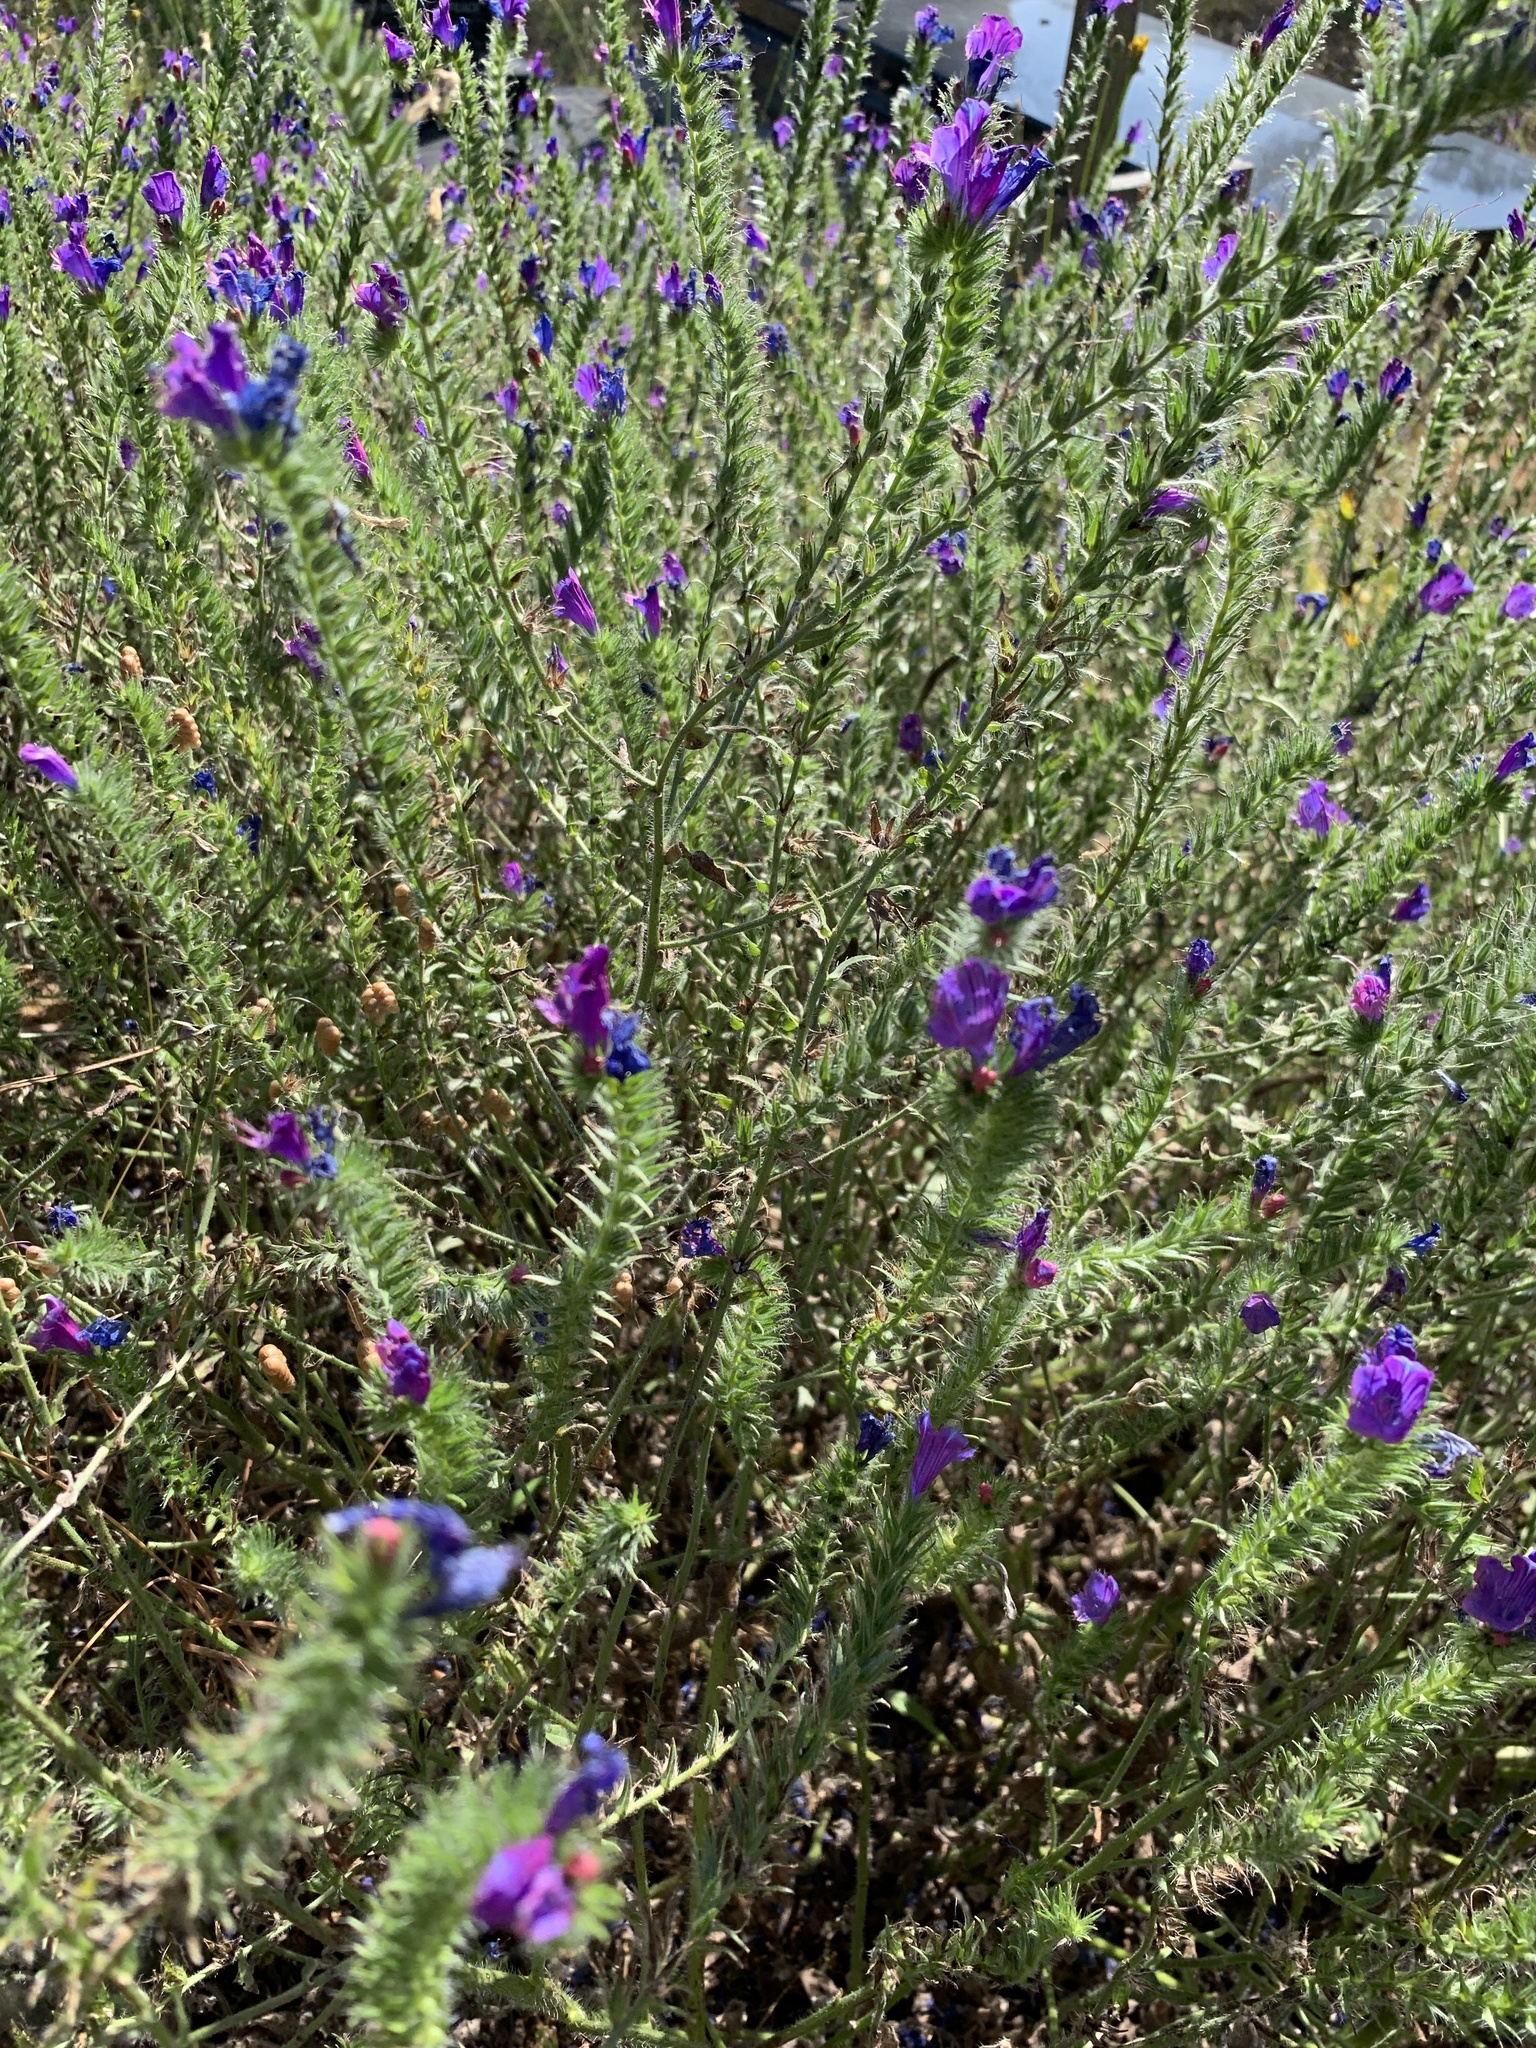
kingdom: Plantae
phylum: Tracheophyta
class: Magnoliopsida
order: Boraginales
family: Boraginaceae
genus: Echium
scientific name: Echium plantagineum
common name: Purple viper's-bugloss
